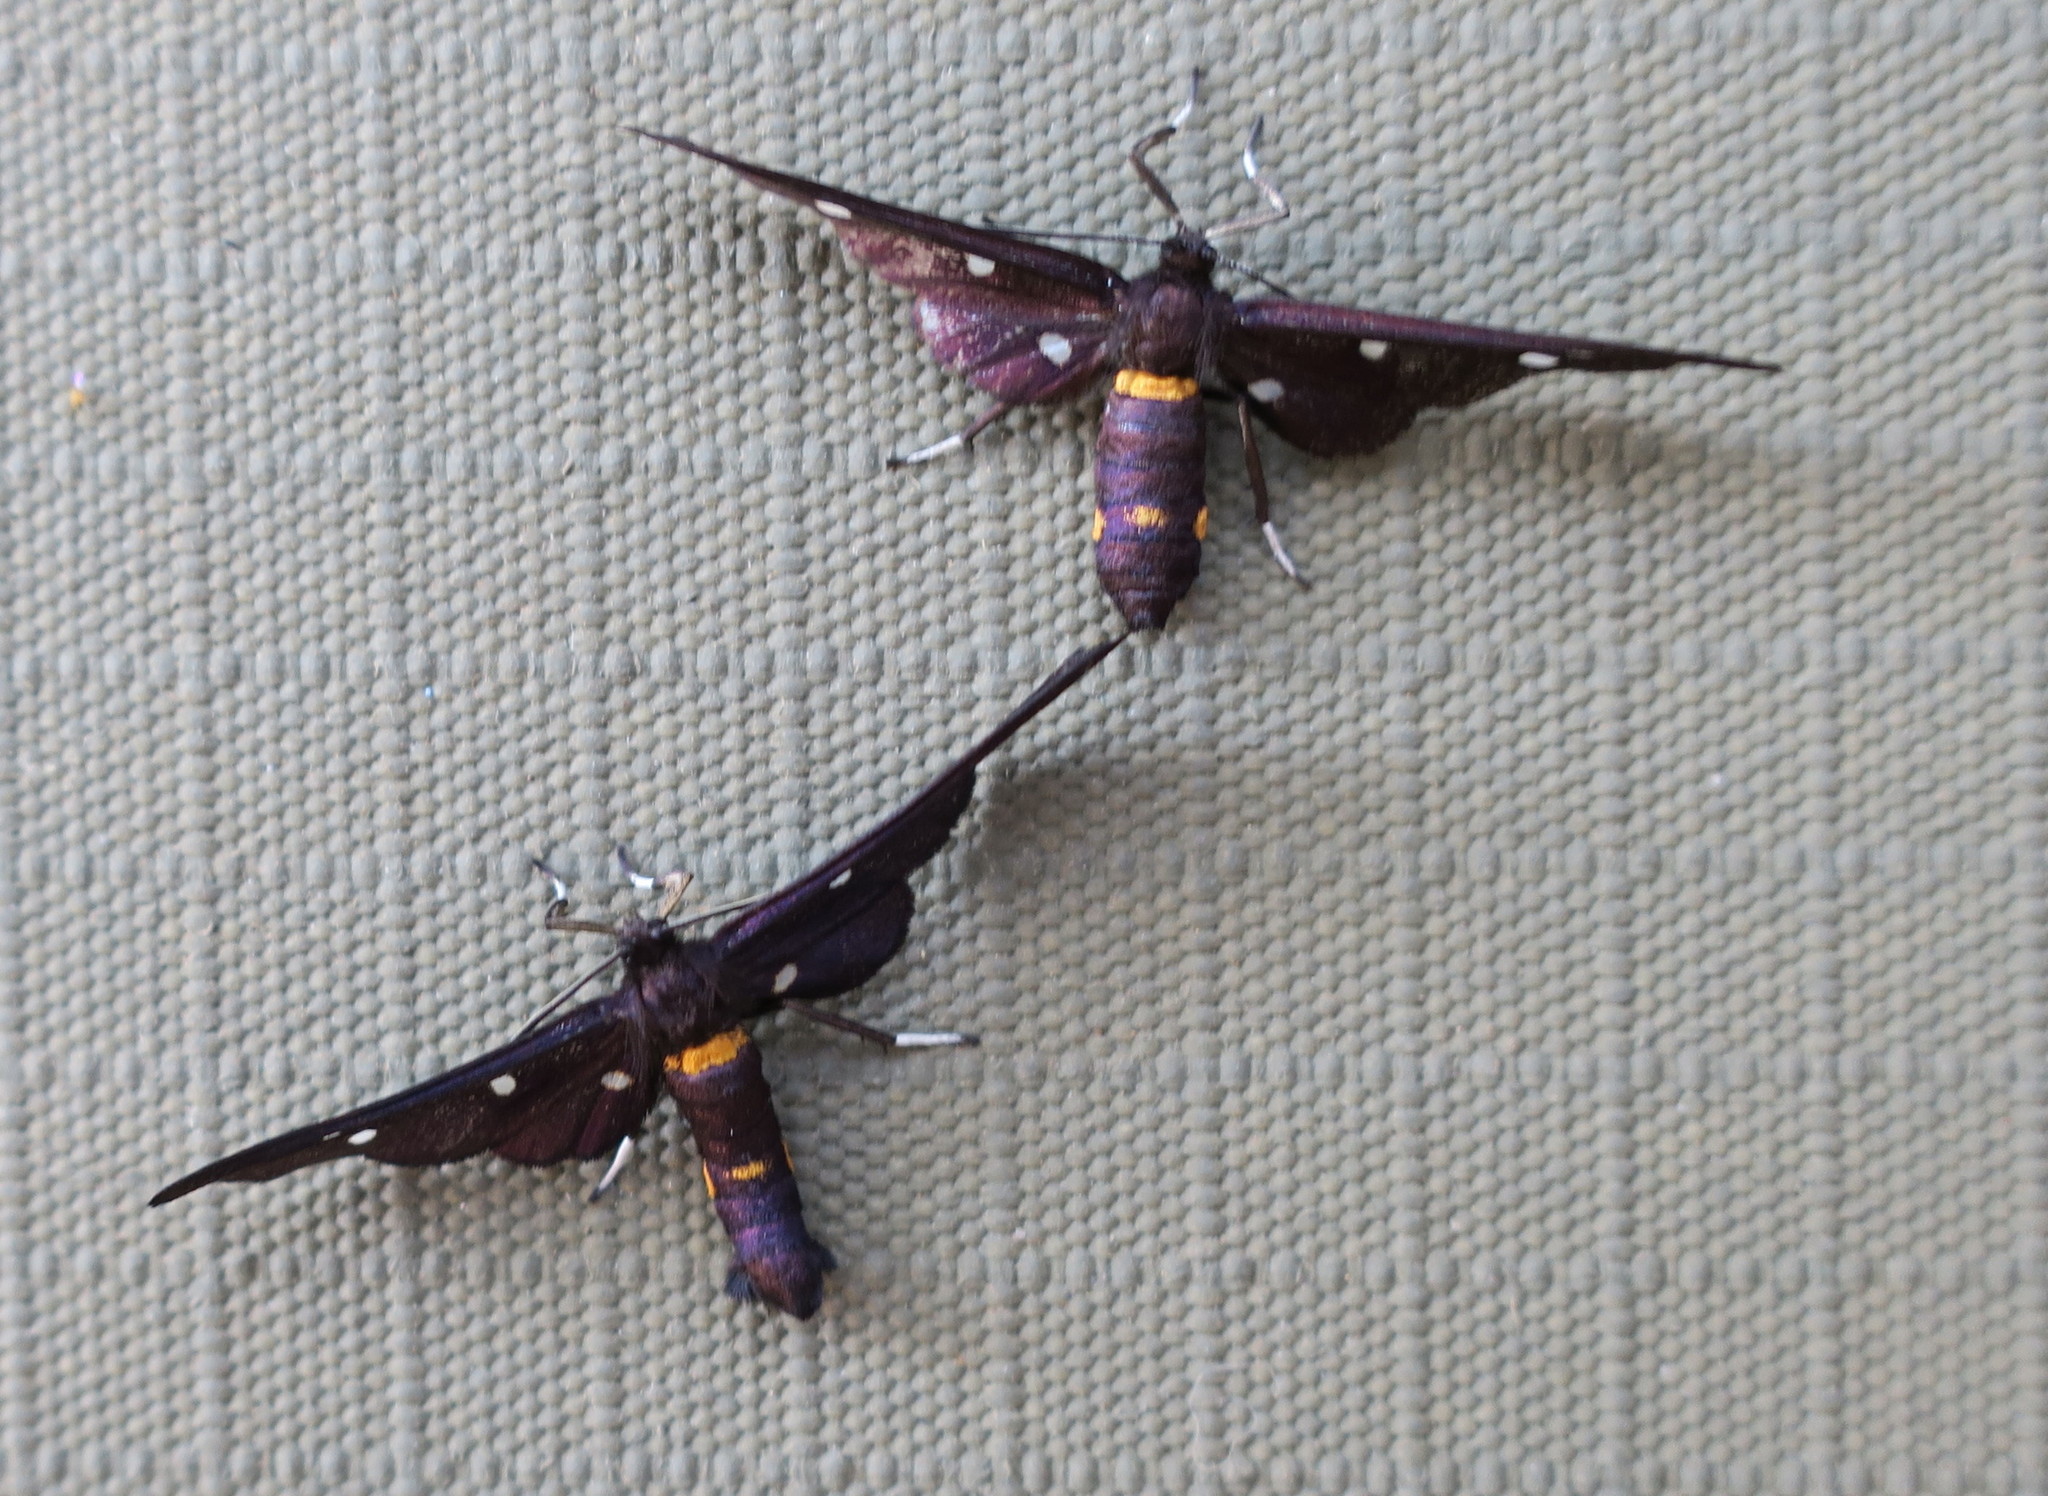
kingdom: Animalia
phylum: Arthropoda
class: Insecta
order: Lepidoptera
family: Erebidae
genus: Hampsonata
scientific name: Hampsonata phoenicia
